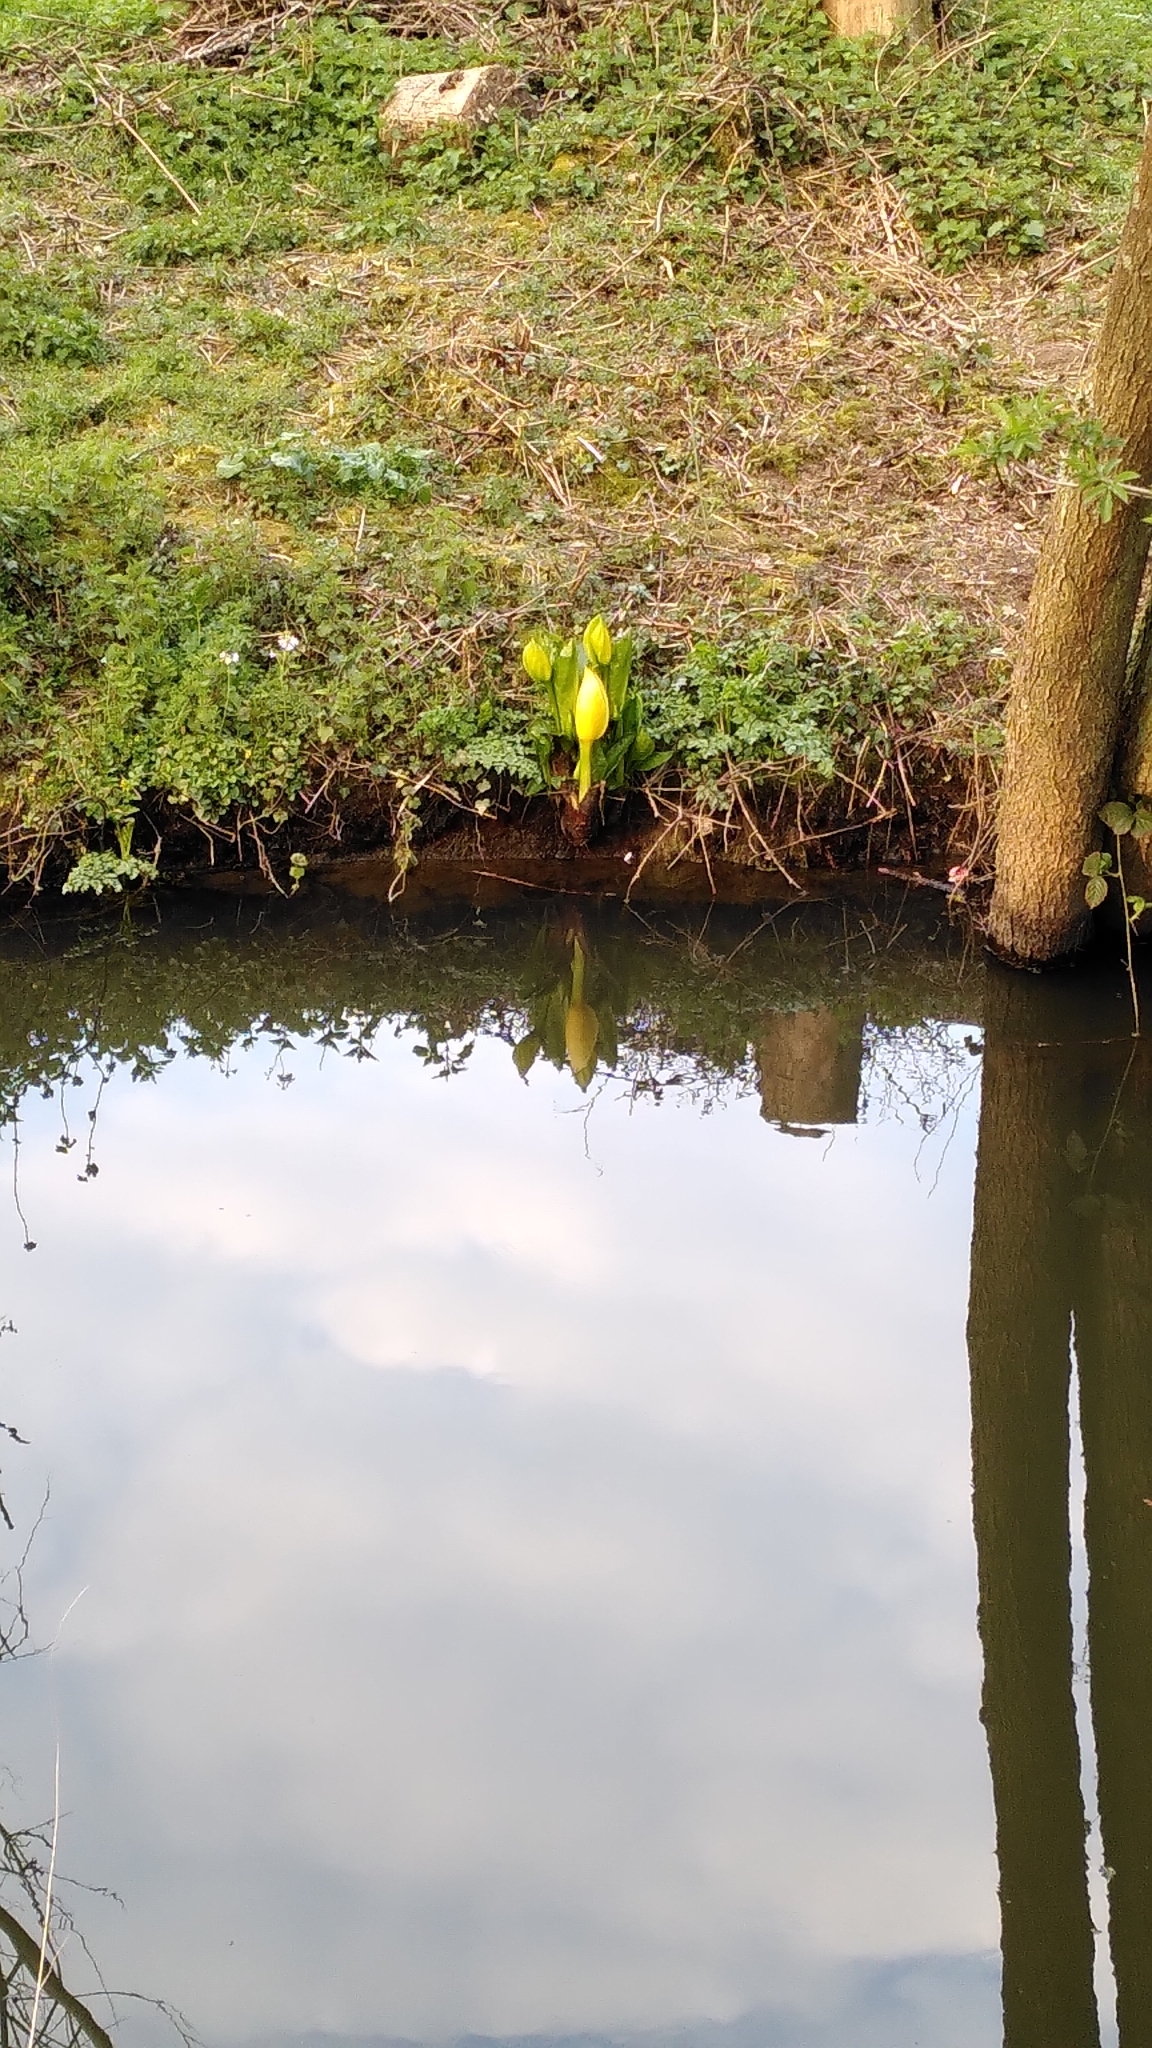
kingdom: Plantae
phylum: Tracheophyta
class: Liliopsida
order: Alismatales
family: Araceae
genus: Lysichiton
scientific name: Lysichiton americanus
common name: American skunk cabbage
